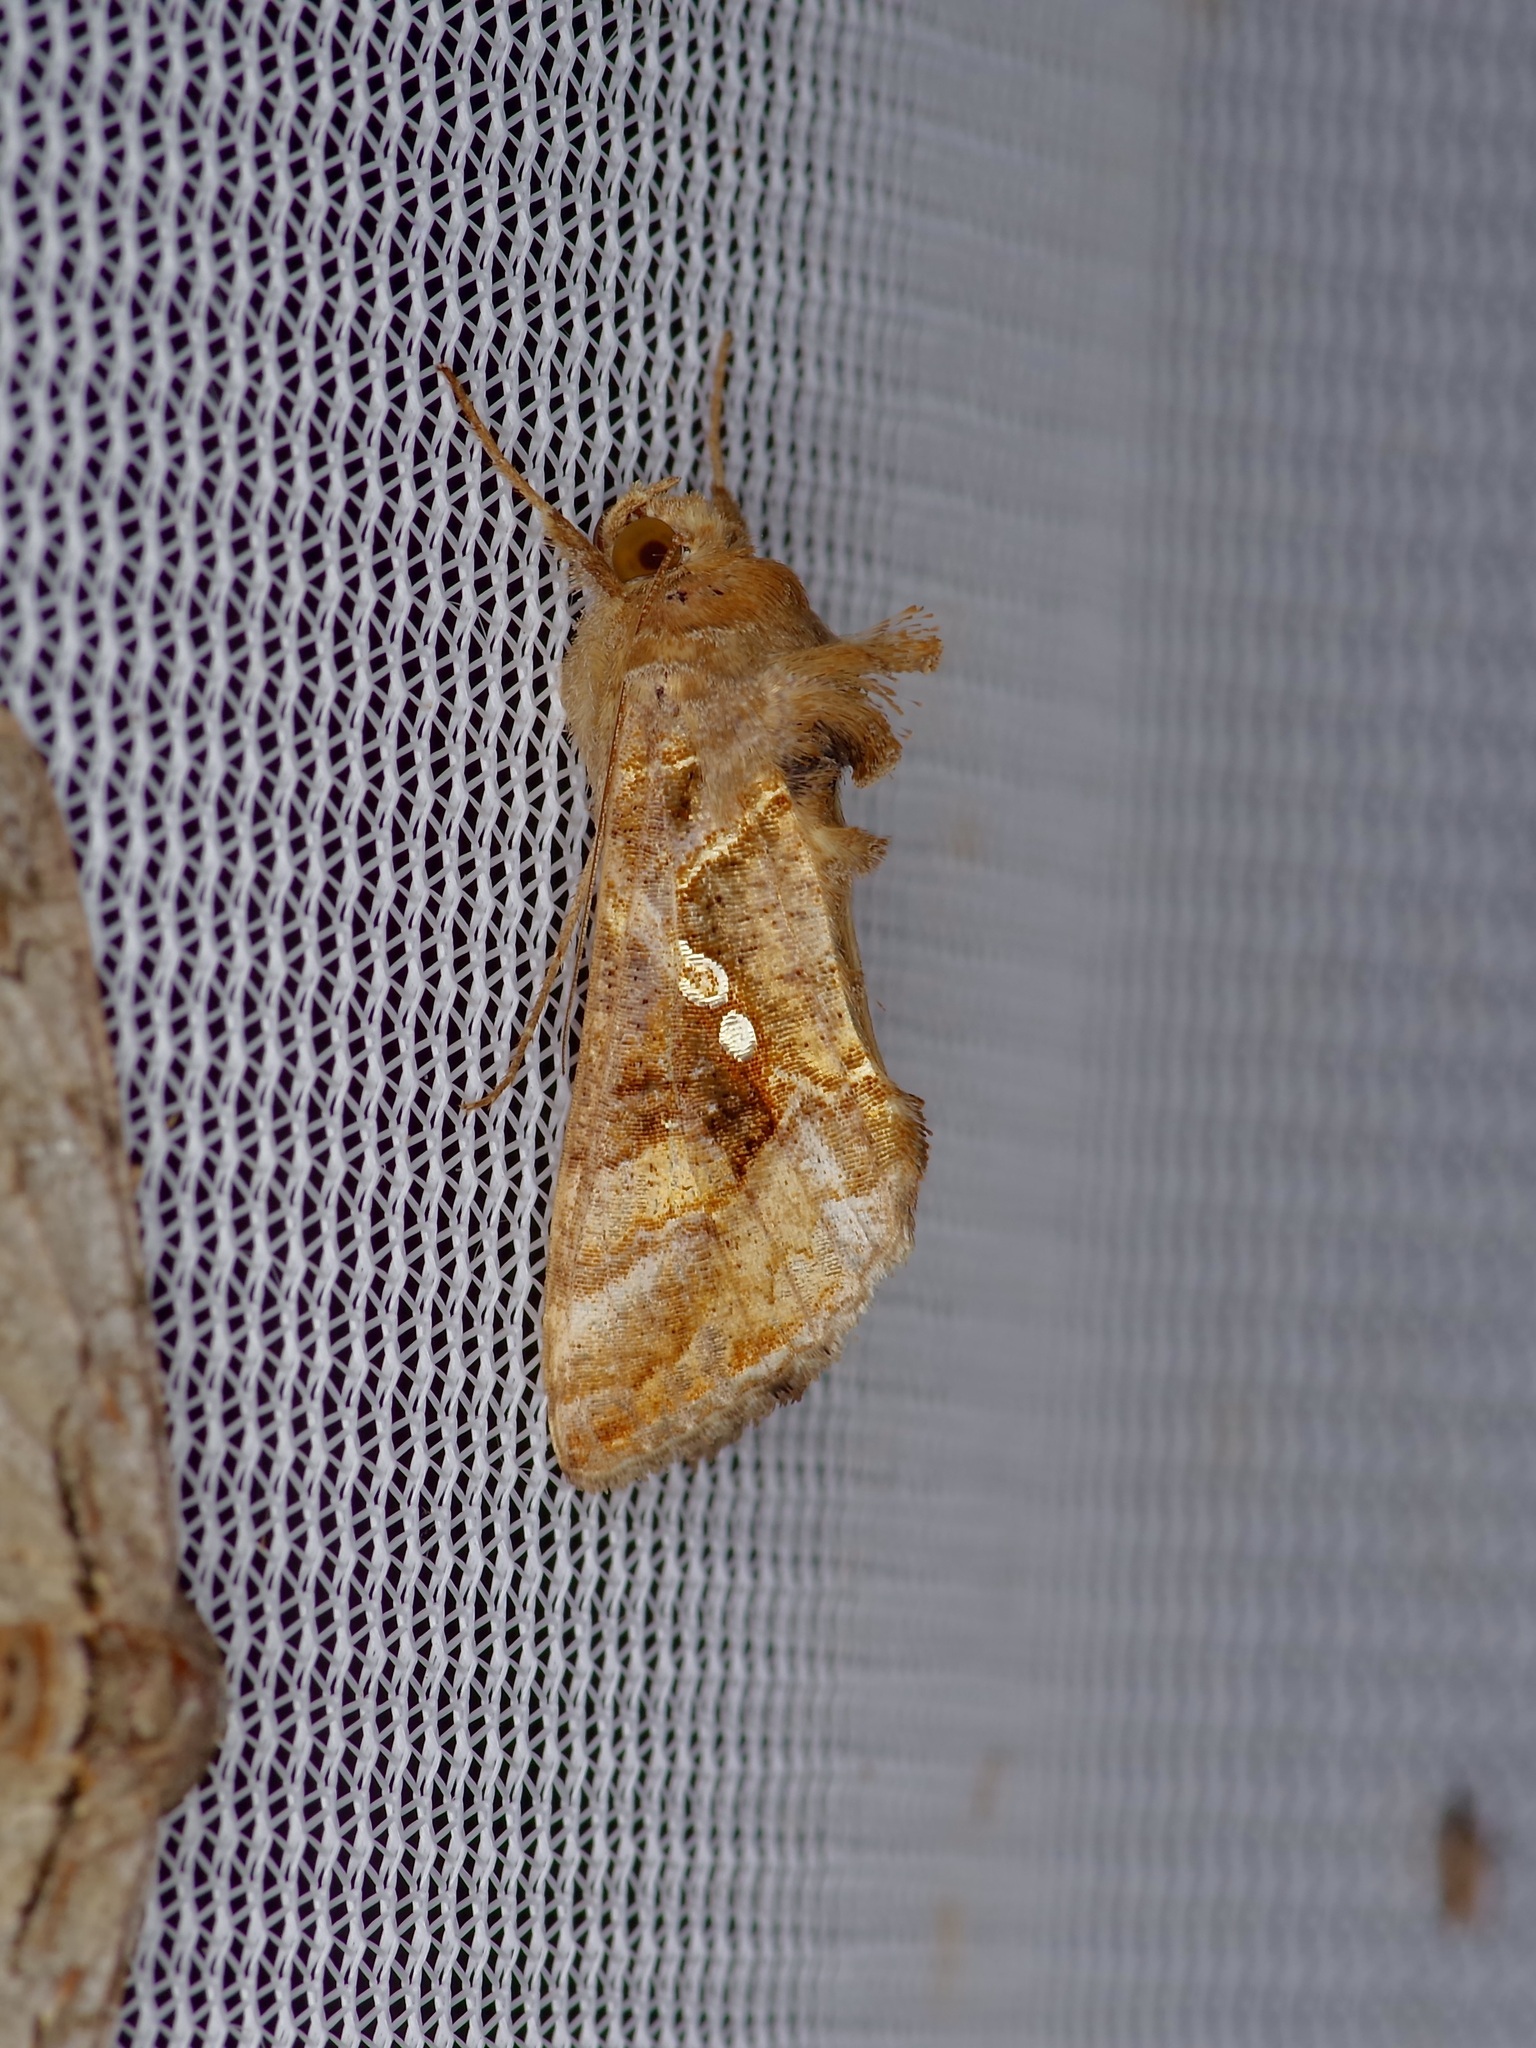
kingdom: Animalia
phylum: Arthropoda
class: Insecta
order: Lepidoptera
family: Noctuidae
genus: Chrysodeixis
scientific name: Chrysodeixis includens
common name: Cutworm moth
